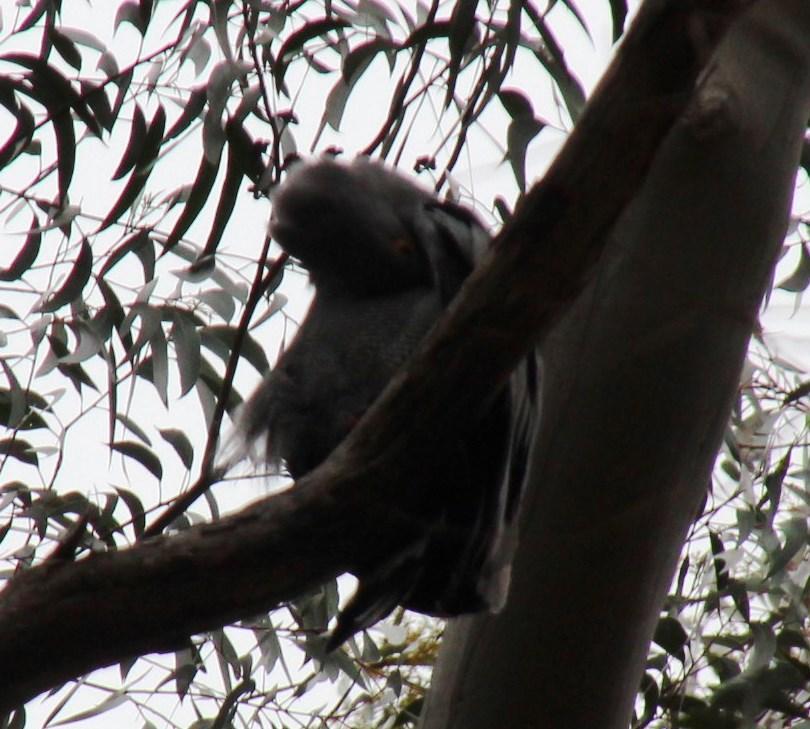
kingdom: Animalia
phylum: Chordata
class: Aves
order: Accipitriformes
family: Accipitridae
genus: Polyboroides
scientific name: Polyboroides typus
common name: African harrier-hawk
